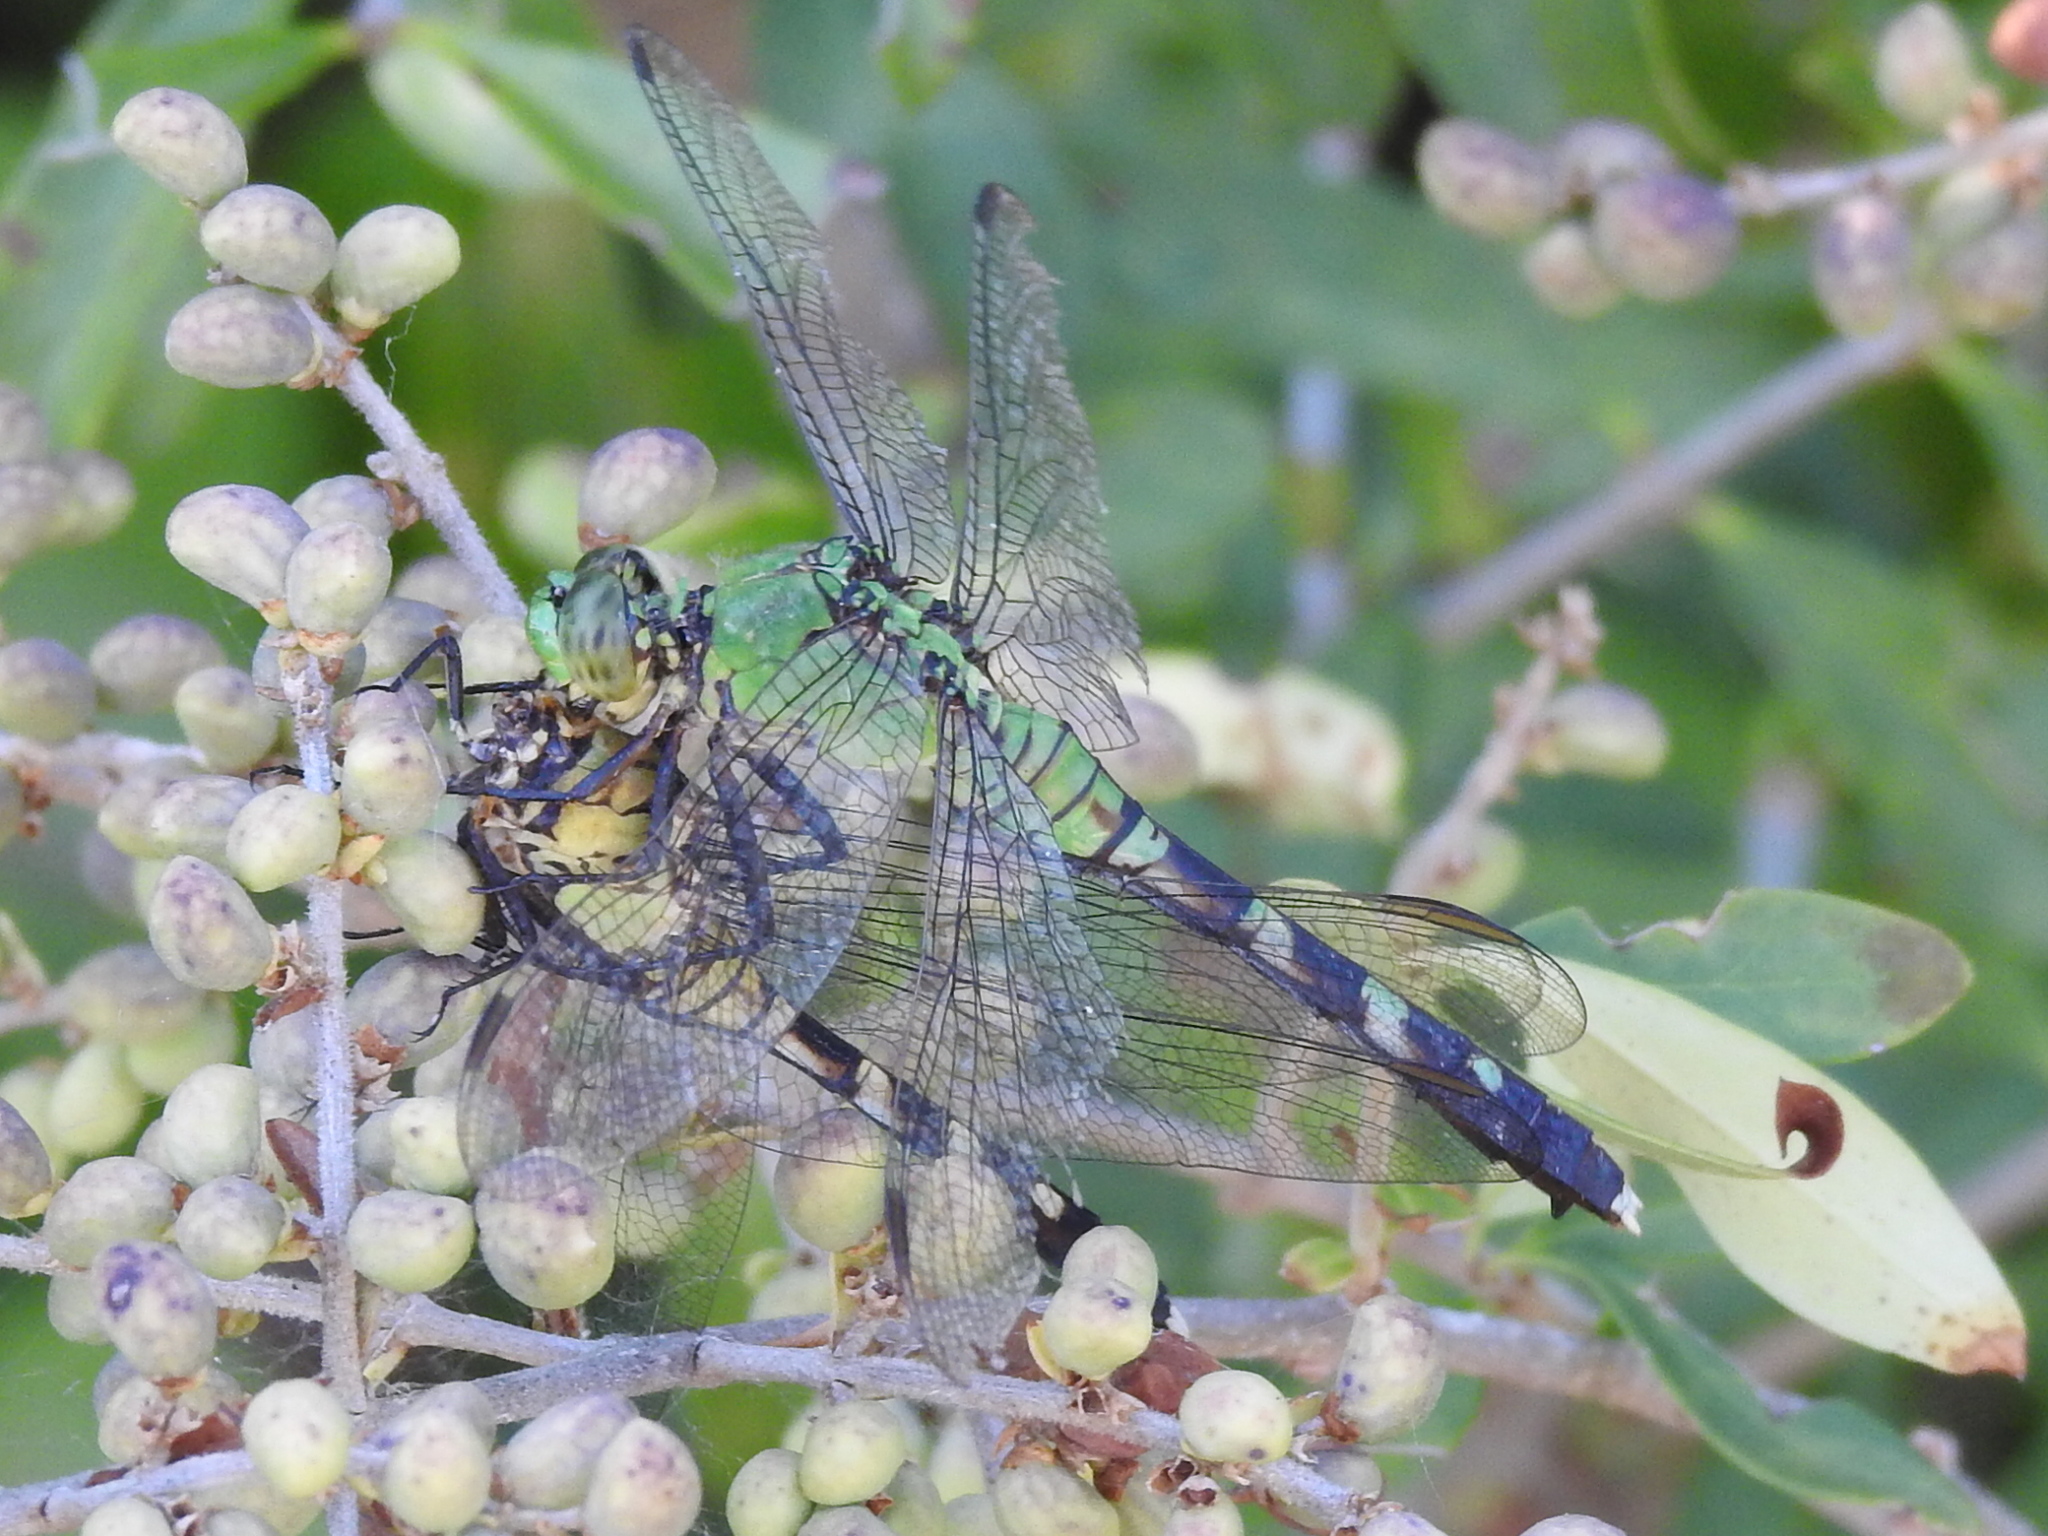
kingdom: Animalia
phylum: Arthropoda
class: Insecta
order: Odonata
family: Libellulidae
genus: Erythemis
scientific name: Erythemis simplicicollis
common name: Eastern pondhawk
